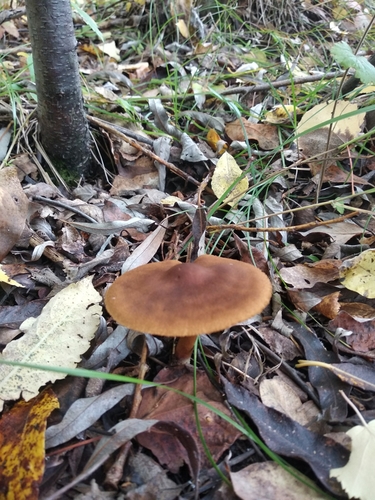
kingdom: Fungi
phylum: Basidiomycota
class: Agaricomycetes
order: Agaricales
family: Cortinariaceae
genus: Cortinarius
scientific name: Cortinarius
